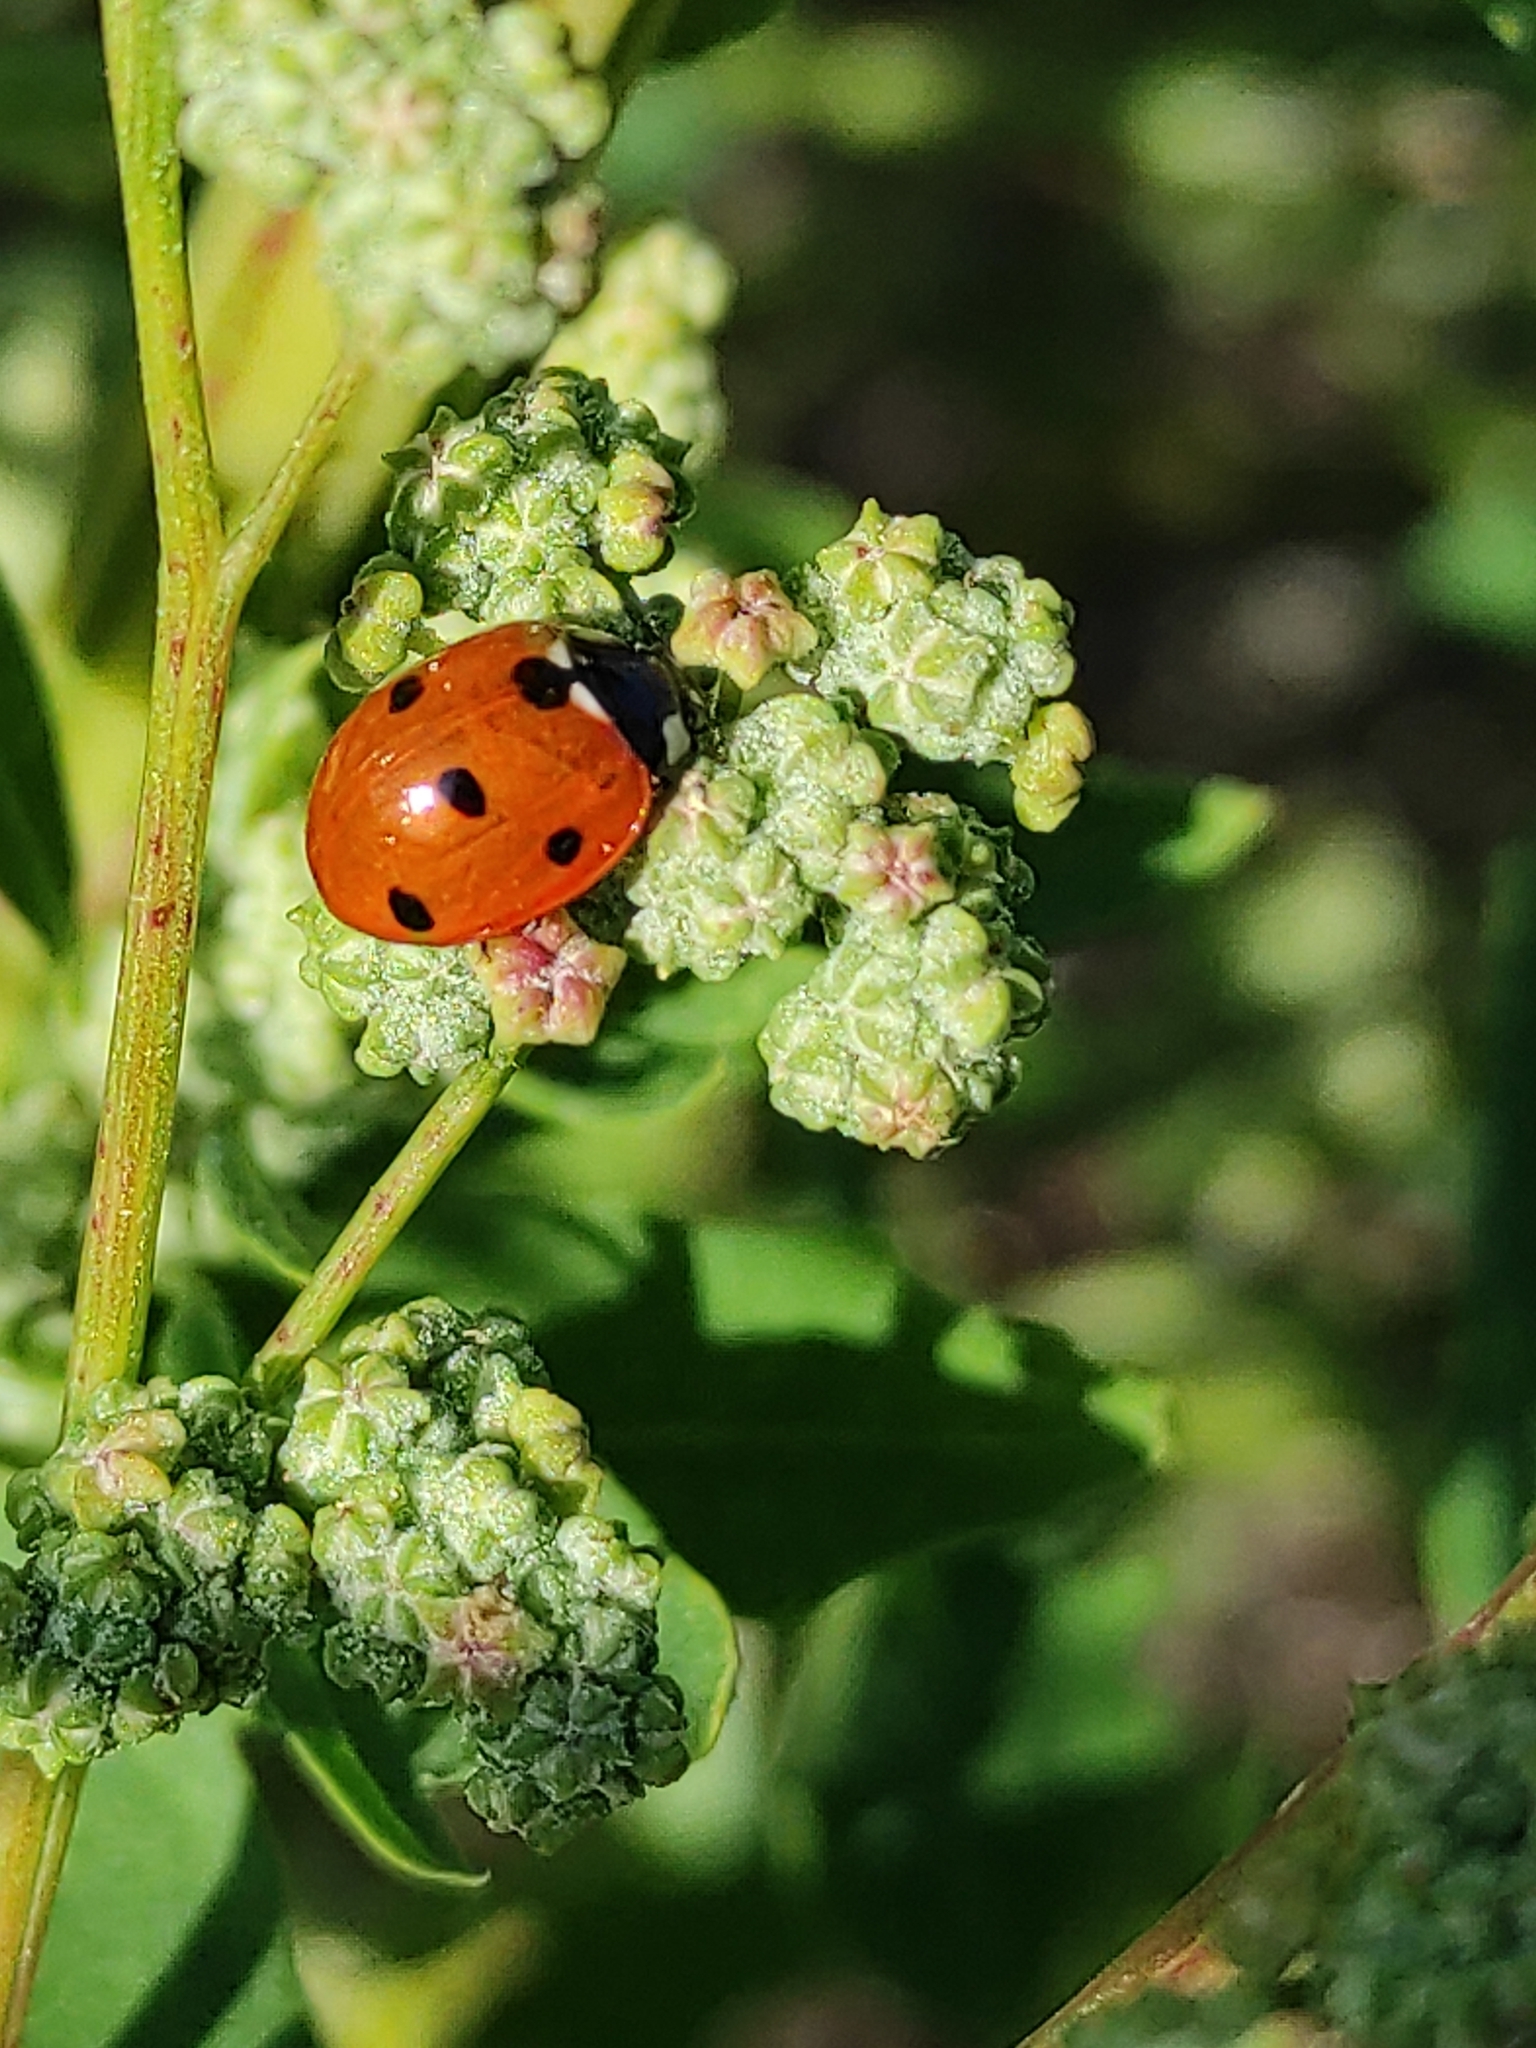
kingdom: Animalia
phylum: Arthropoda
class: Insecta
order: Coleoptera
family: Coccinellidae
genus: Coccinella
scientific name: Coccinella septempunctata
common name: Sevenspotted lady beetle
